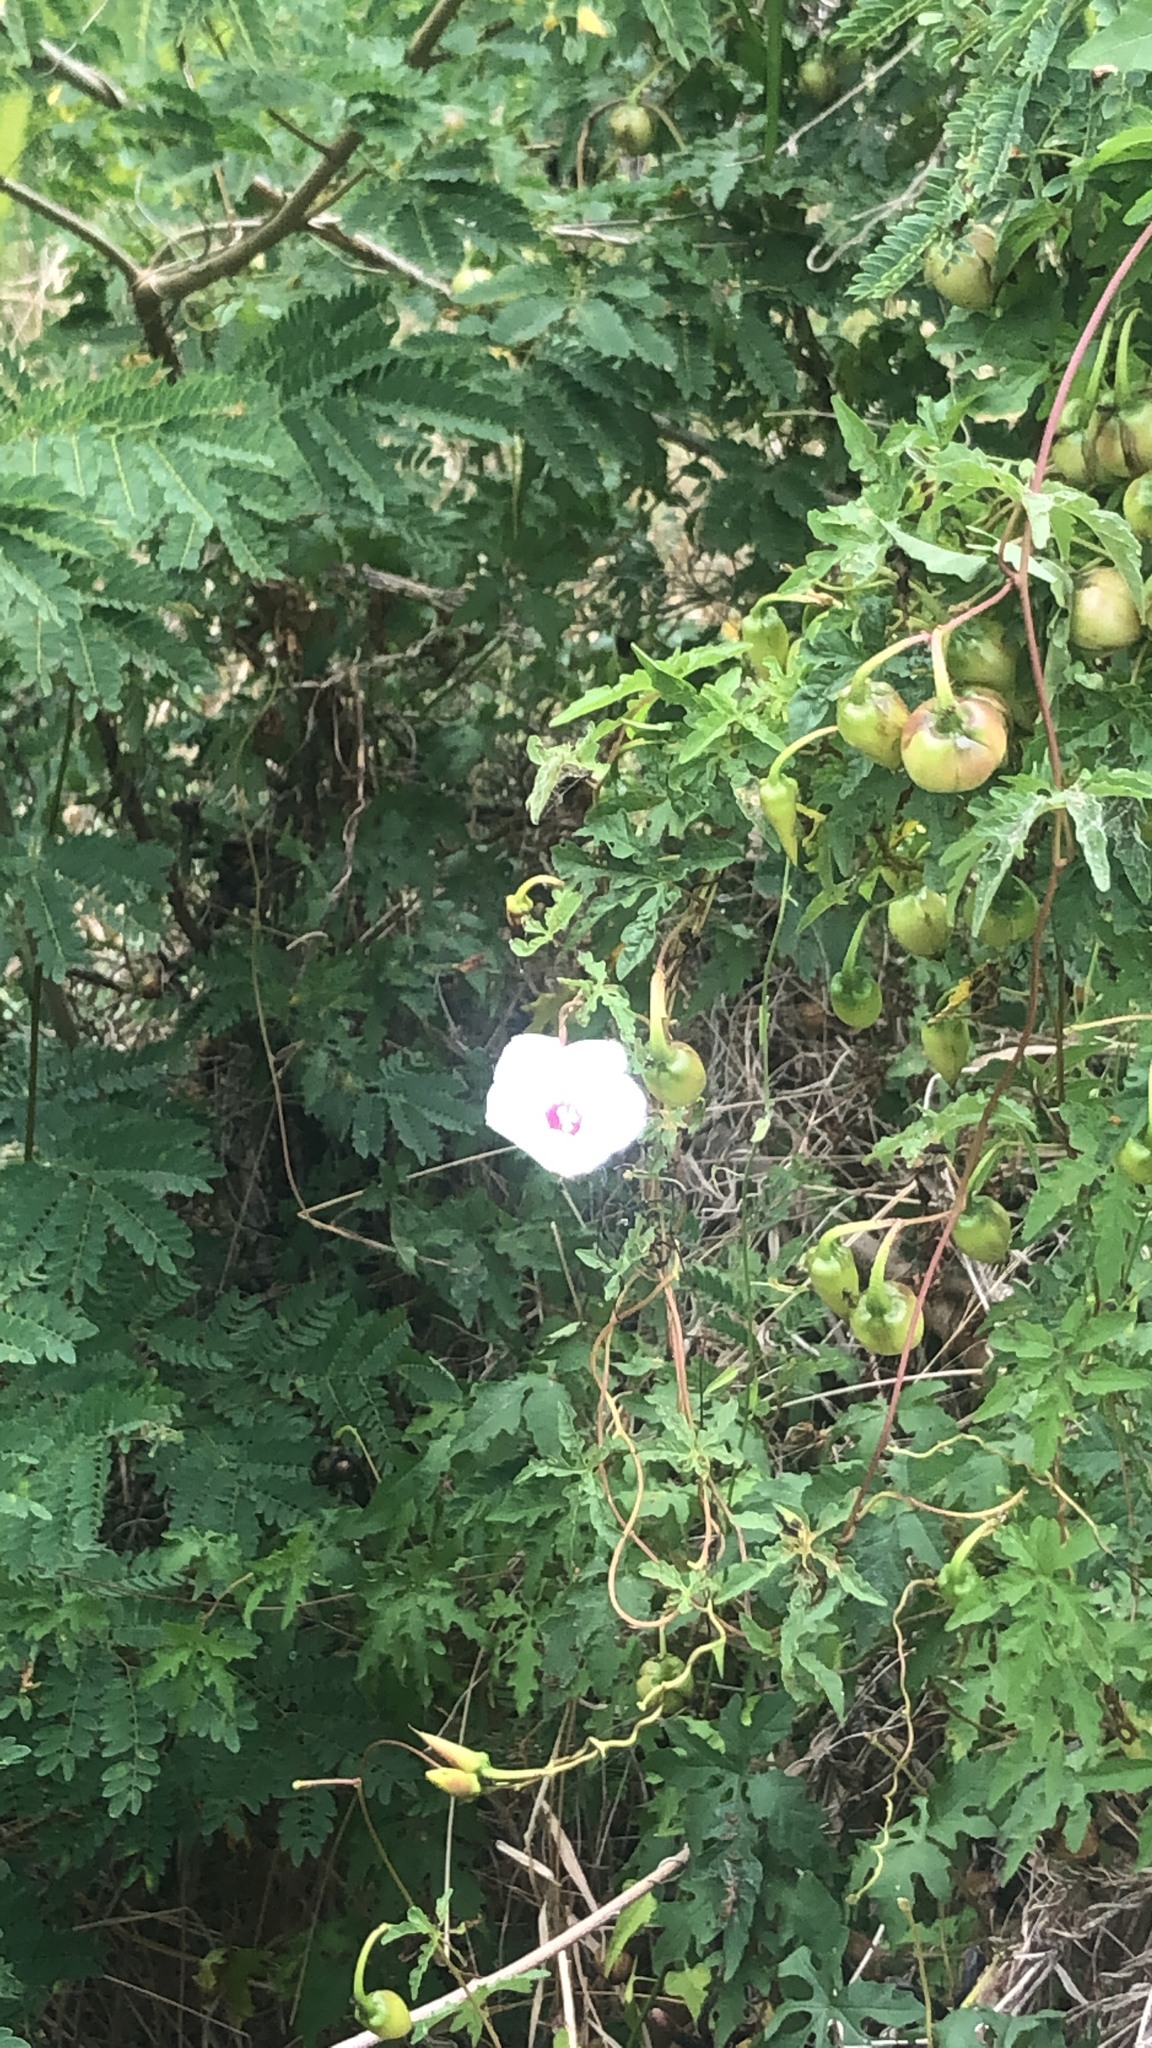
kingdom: Plantae
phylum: Tracheophyta
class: Magnoliopsida
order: Solanales
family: Convolvulaceae
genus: Distimake
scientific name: Distimake dissectus
